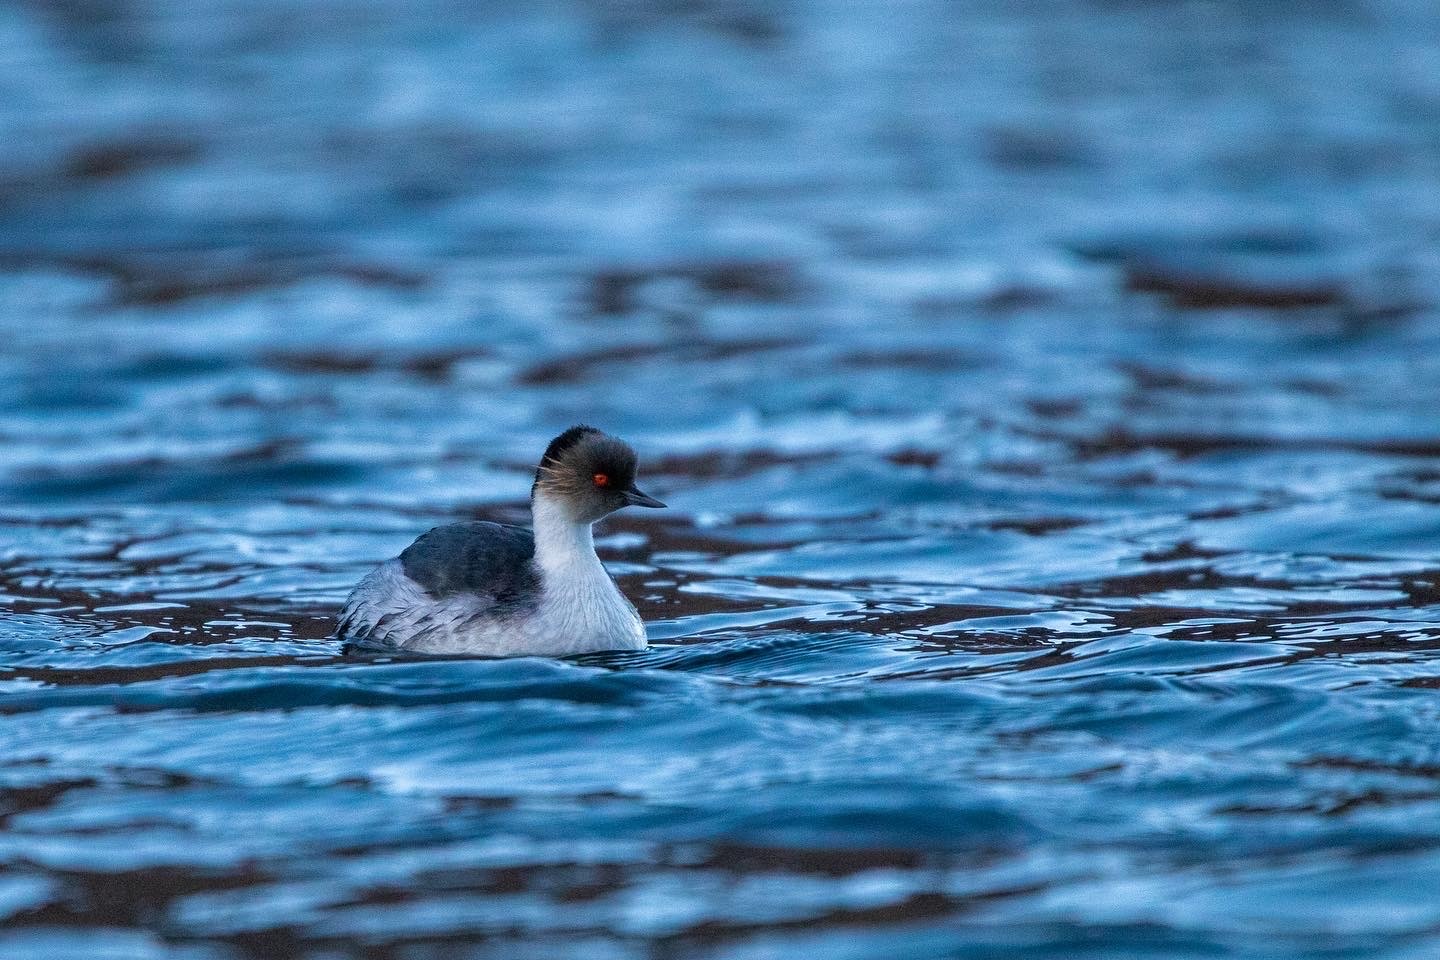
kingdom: Animalia
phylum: Chordata
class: Aves
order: Podicipediformes
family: Podicipedidae
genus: Podiceps
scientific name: Podiceps occipitalis
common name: Silvery grebe
